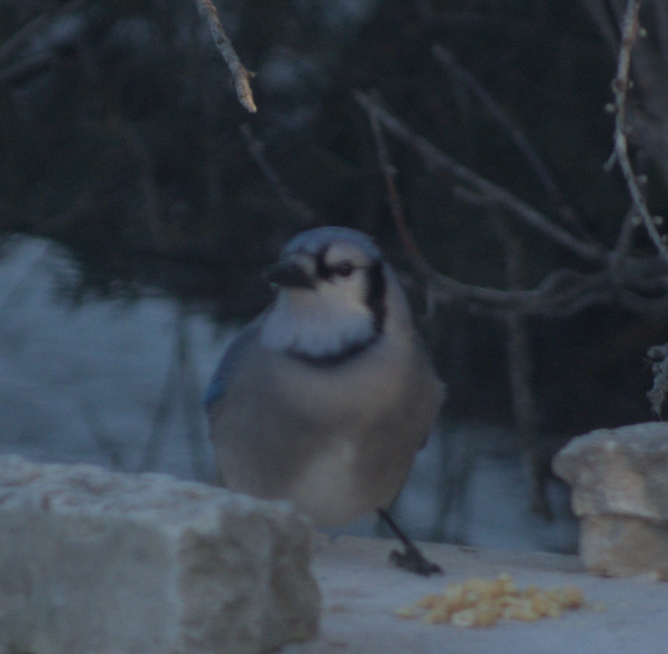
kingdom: Animalia
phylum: Chordata
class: Aves
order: Passeriformes
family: Corvidae
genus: Cyanocitta
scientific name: Cyanocitta cristata
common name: Blue jay
